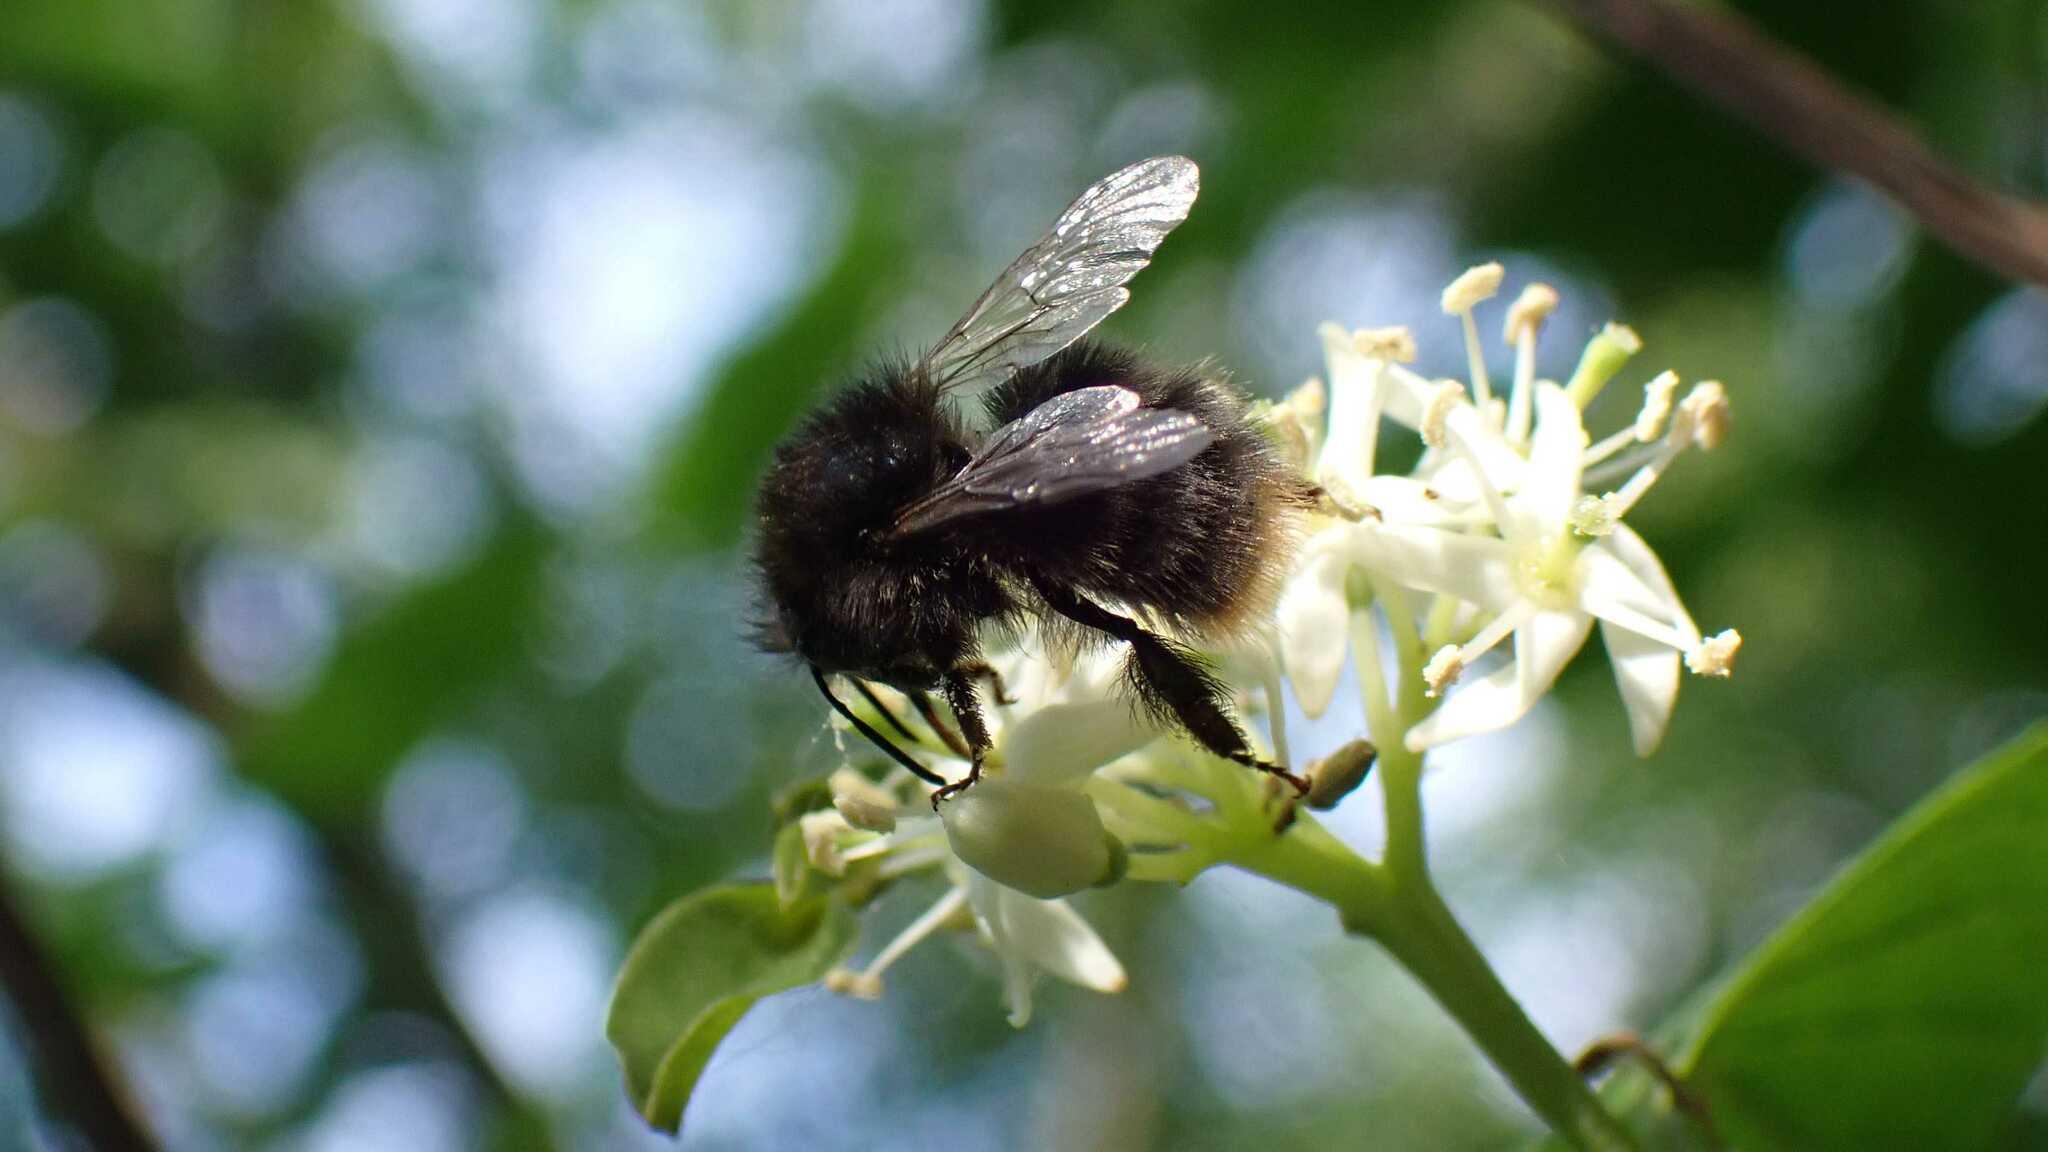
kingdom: Animalia
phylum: Arthropoda
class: Insecta
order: Hymenoptera
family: Apidae
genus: Bombus
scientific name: Bombus
